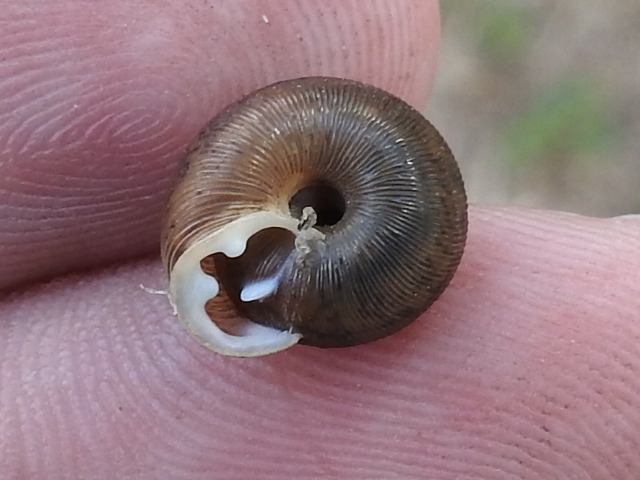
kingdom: Animalia
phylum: Mollusca
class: Gastropoda
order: Stylommatophora
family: Polygyridae
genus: Triodopsis
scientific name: Triodopsis hopetonensis
